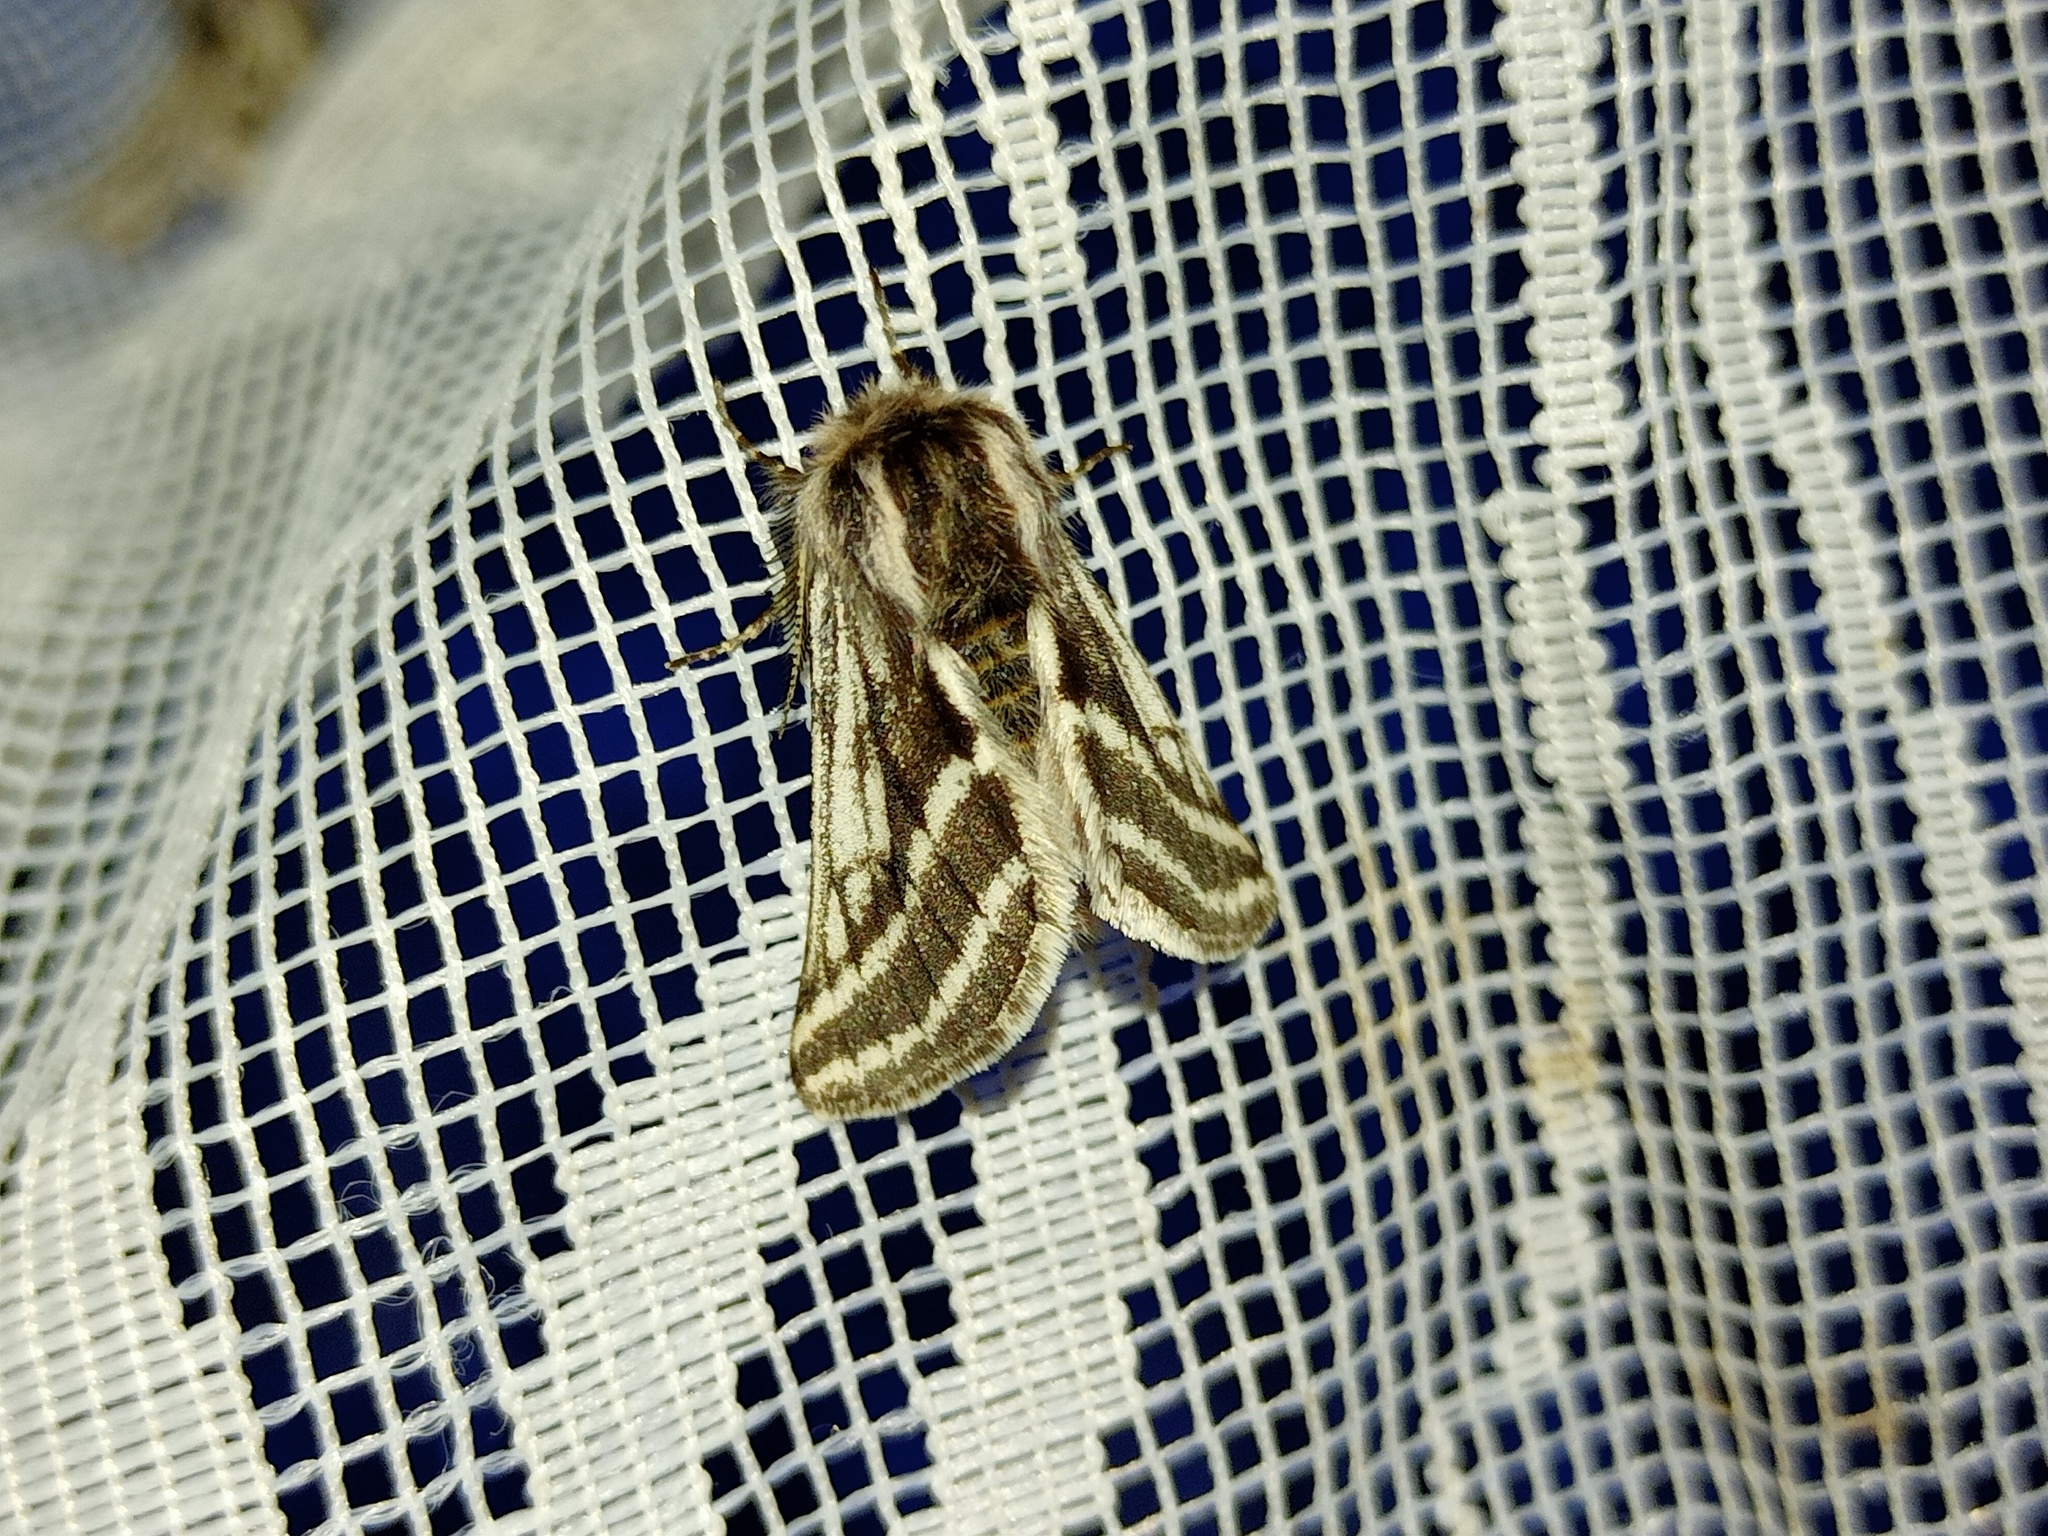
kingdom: Animalia
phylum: Arthropoda
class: Insecta
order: Lepidoptera
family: Geometridae
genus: Lycia
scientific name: Lycia zonaria
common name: Belted beauty
